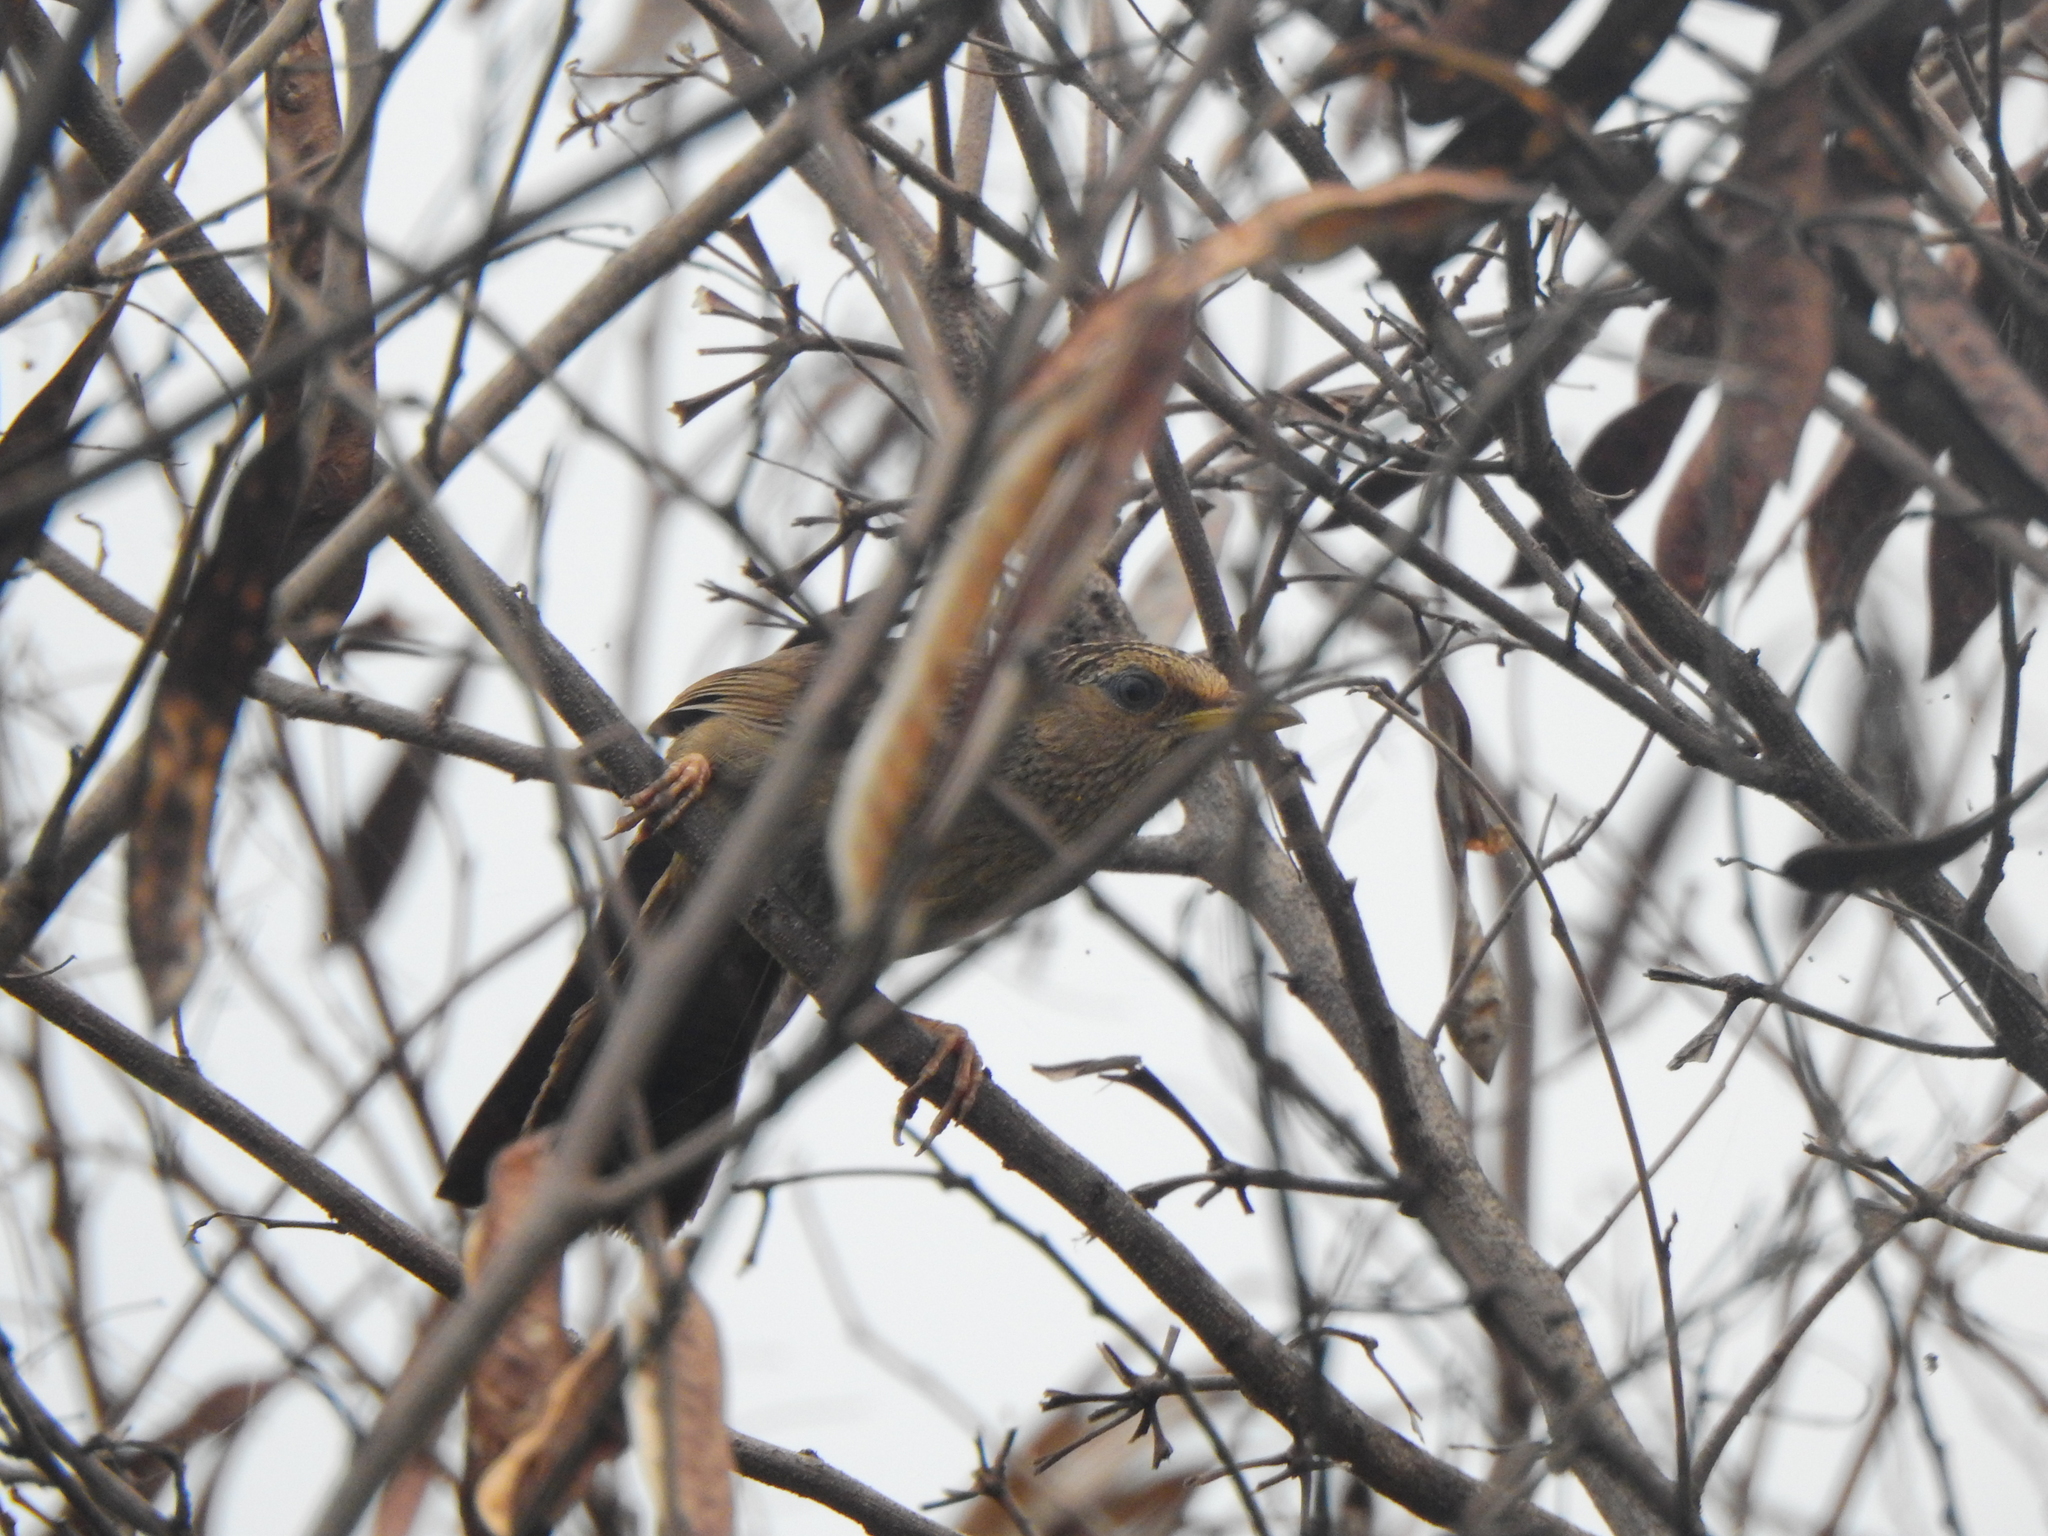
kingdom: Animalia
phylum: Chordata
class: Aves
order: Passeriformes
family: Leiothrichidae
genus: Garrulax
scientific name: Garrulax taewanus
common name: Taiwan hwamei
